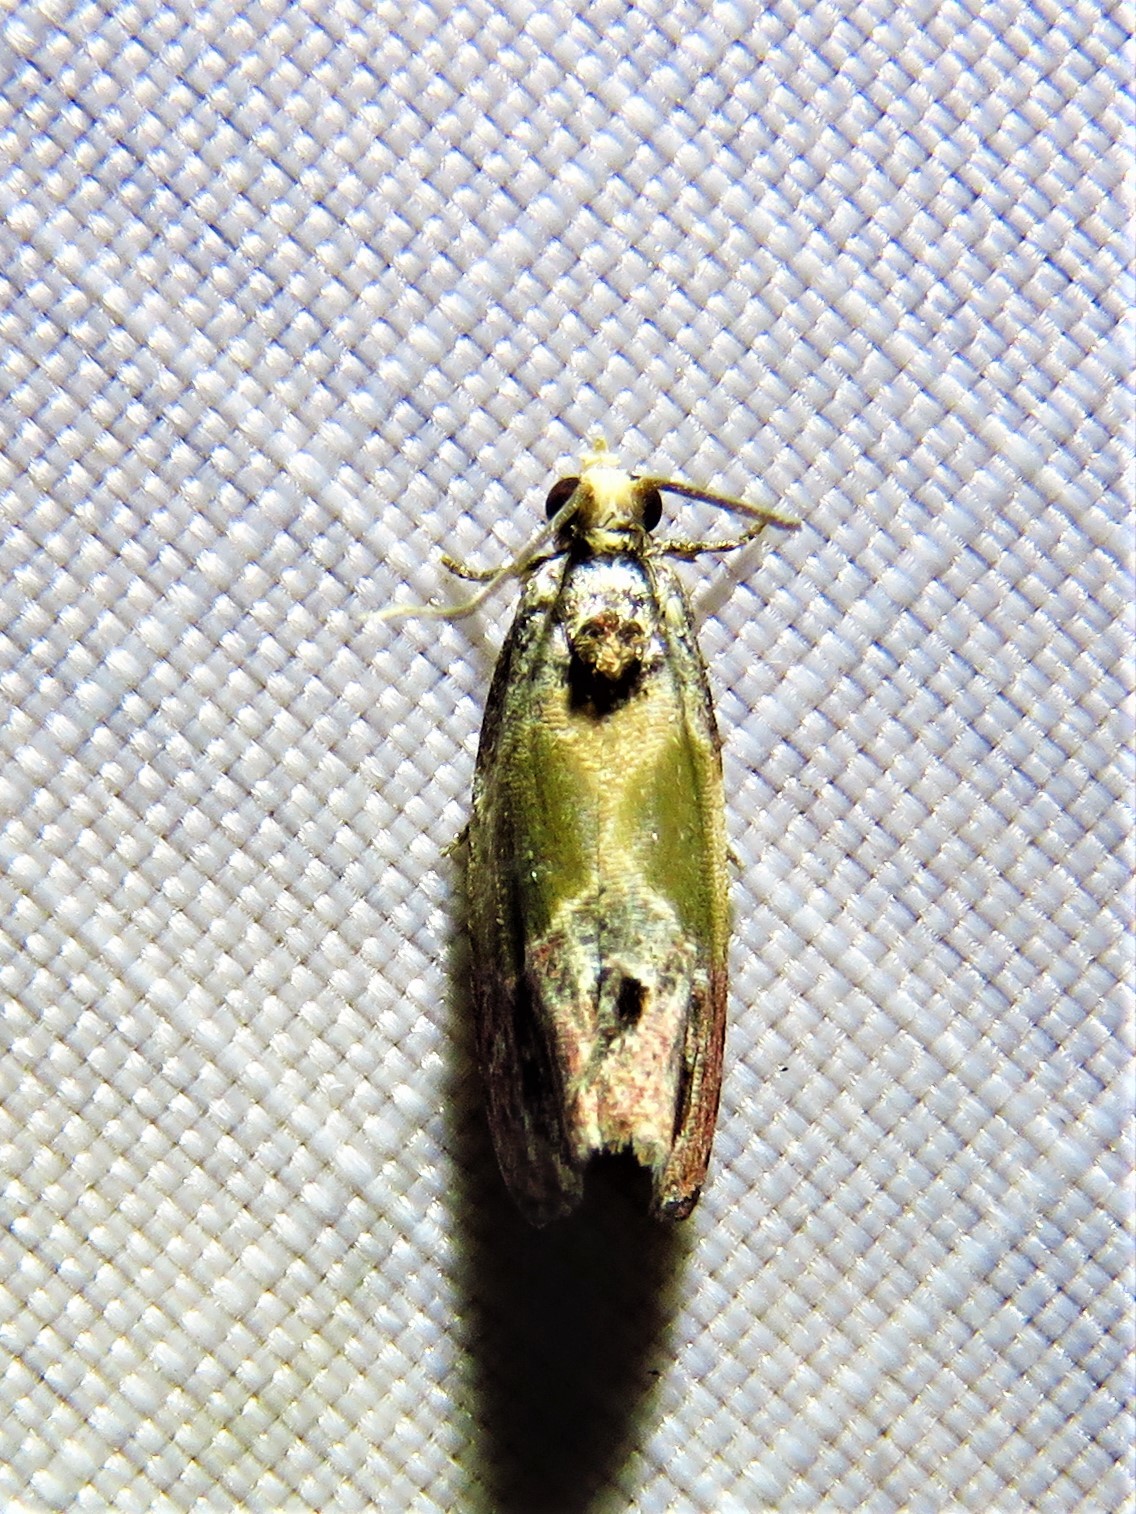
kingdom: Animalia
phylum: Arthropoda
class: Insecta
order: Lepidoptera
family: Tortricidae
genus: Eumarozia
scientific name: Eumarozia malachitana
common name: Sculptured moth
